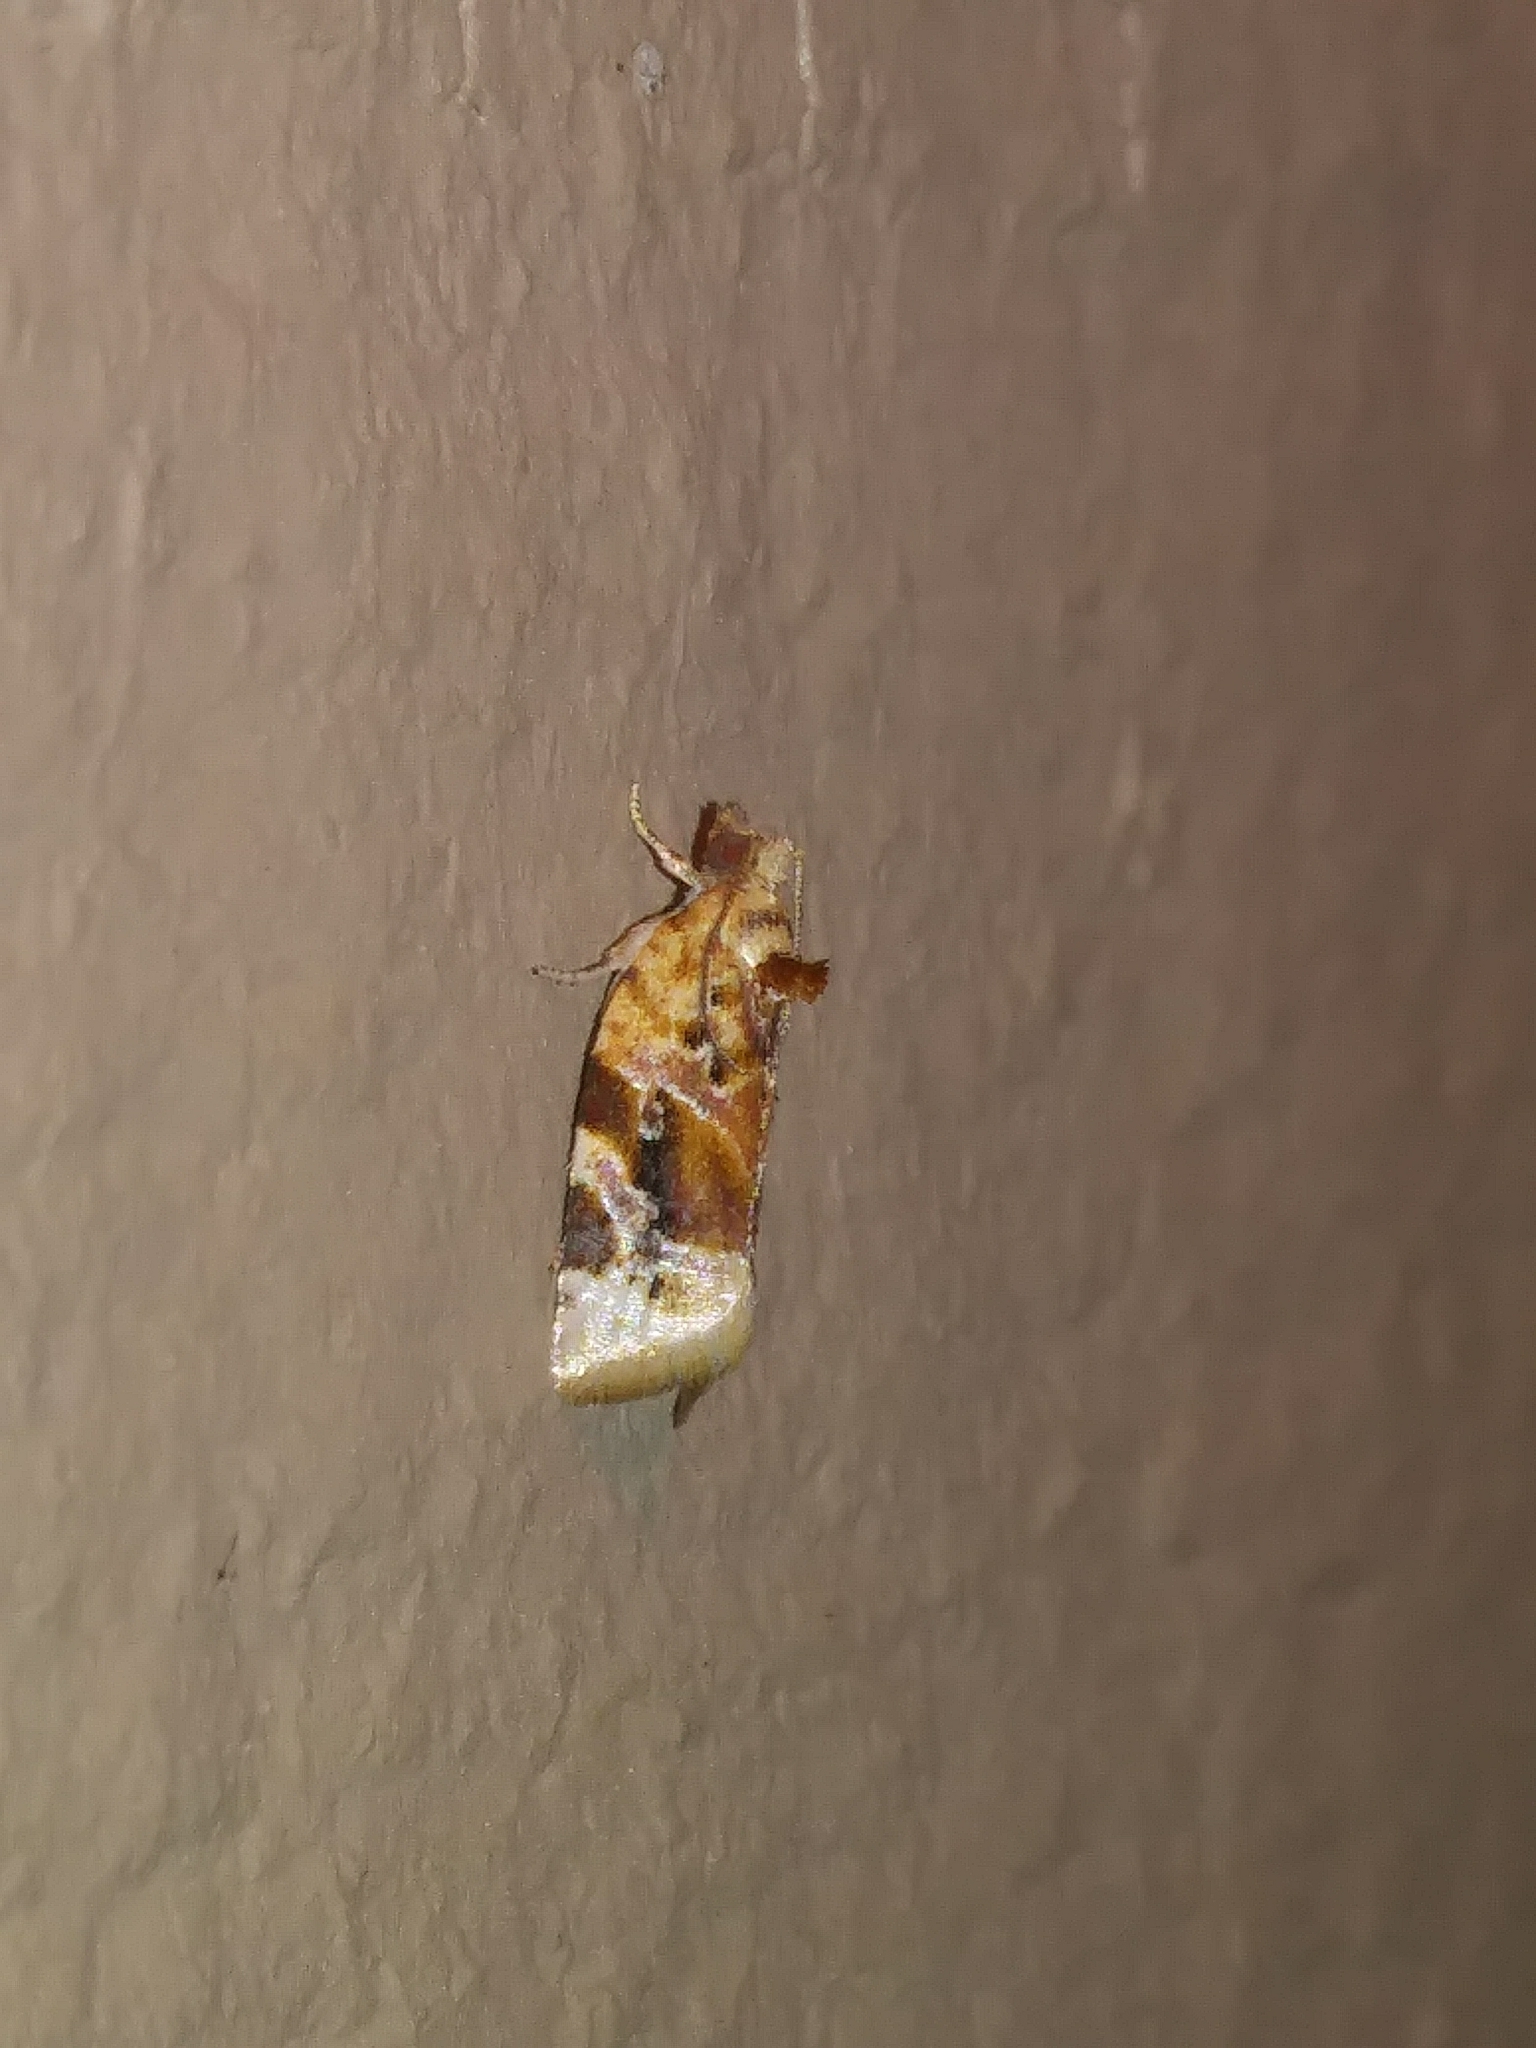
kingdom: Animalia
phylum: Arthropoda
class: Insecta
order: Lepidoptera
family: Tortricidae
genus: Argyrotaenia
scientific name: Argyrotaenia velutinana
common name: Red-banded leafroller moth
